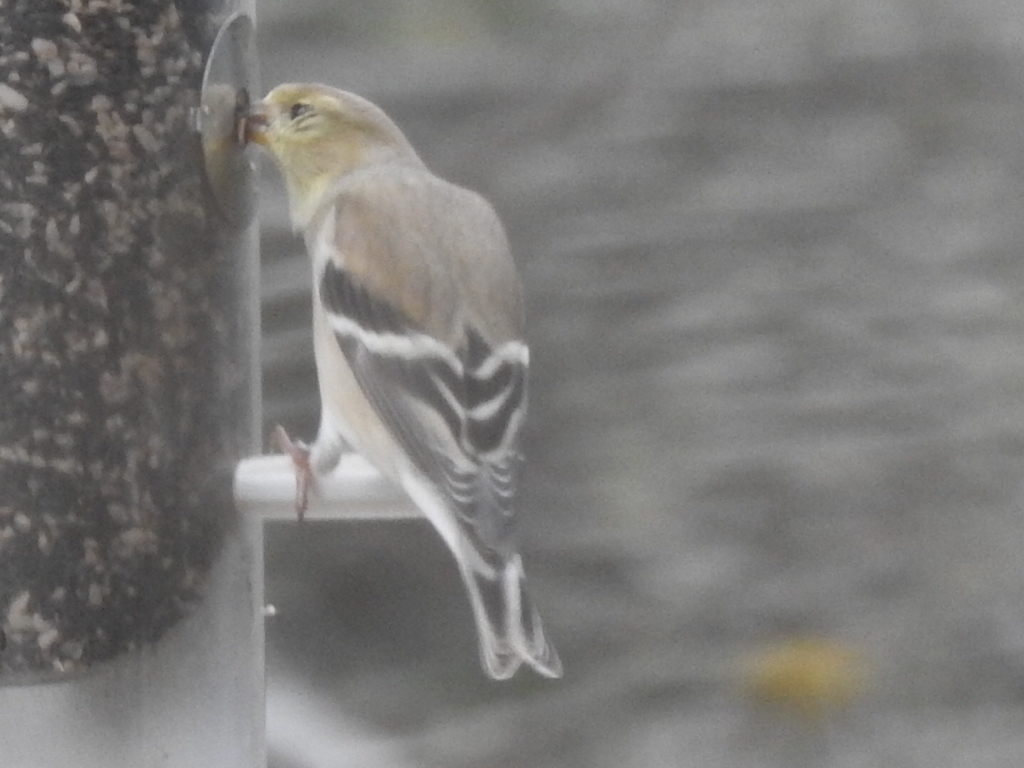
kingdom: Animalia
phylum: Chordata
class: Aves
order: Passeriformes
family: Fringillidae
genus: Spinus
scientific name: Spinus tristis
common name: American goldfinch
